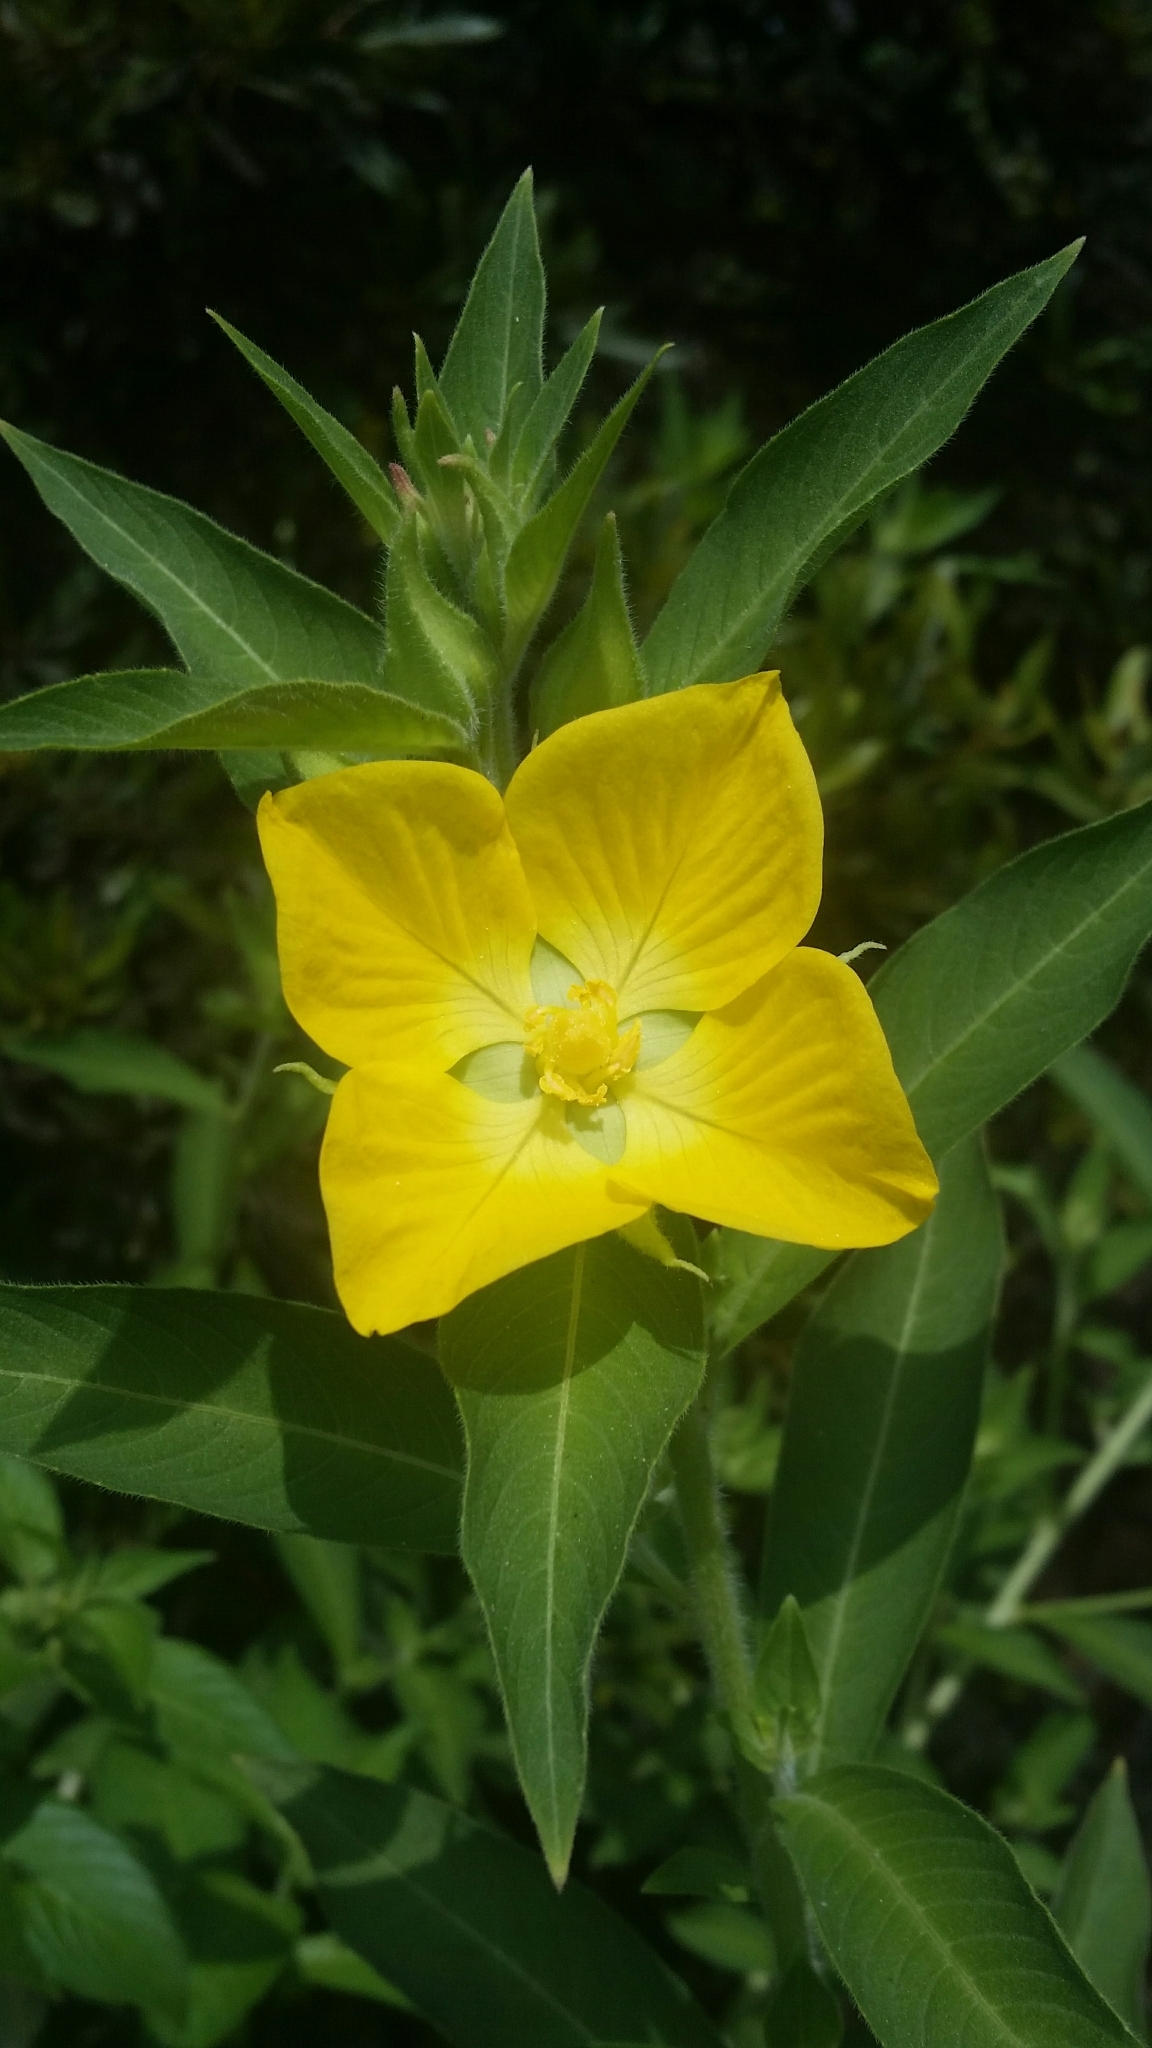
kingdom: Plantae
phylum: Tracheophyta
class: Magnoliopsida
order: Myrtales
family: Onagraceae
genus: Ludwigia
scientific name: Ludwigia peruviana
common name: Peruvian primrose-willow
